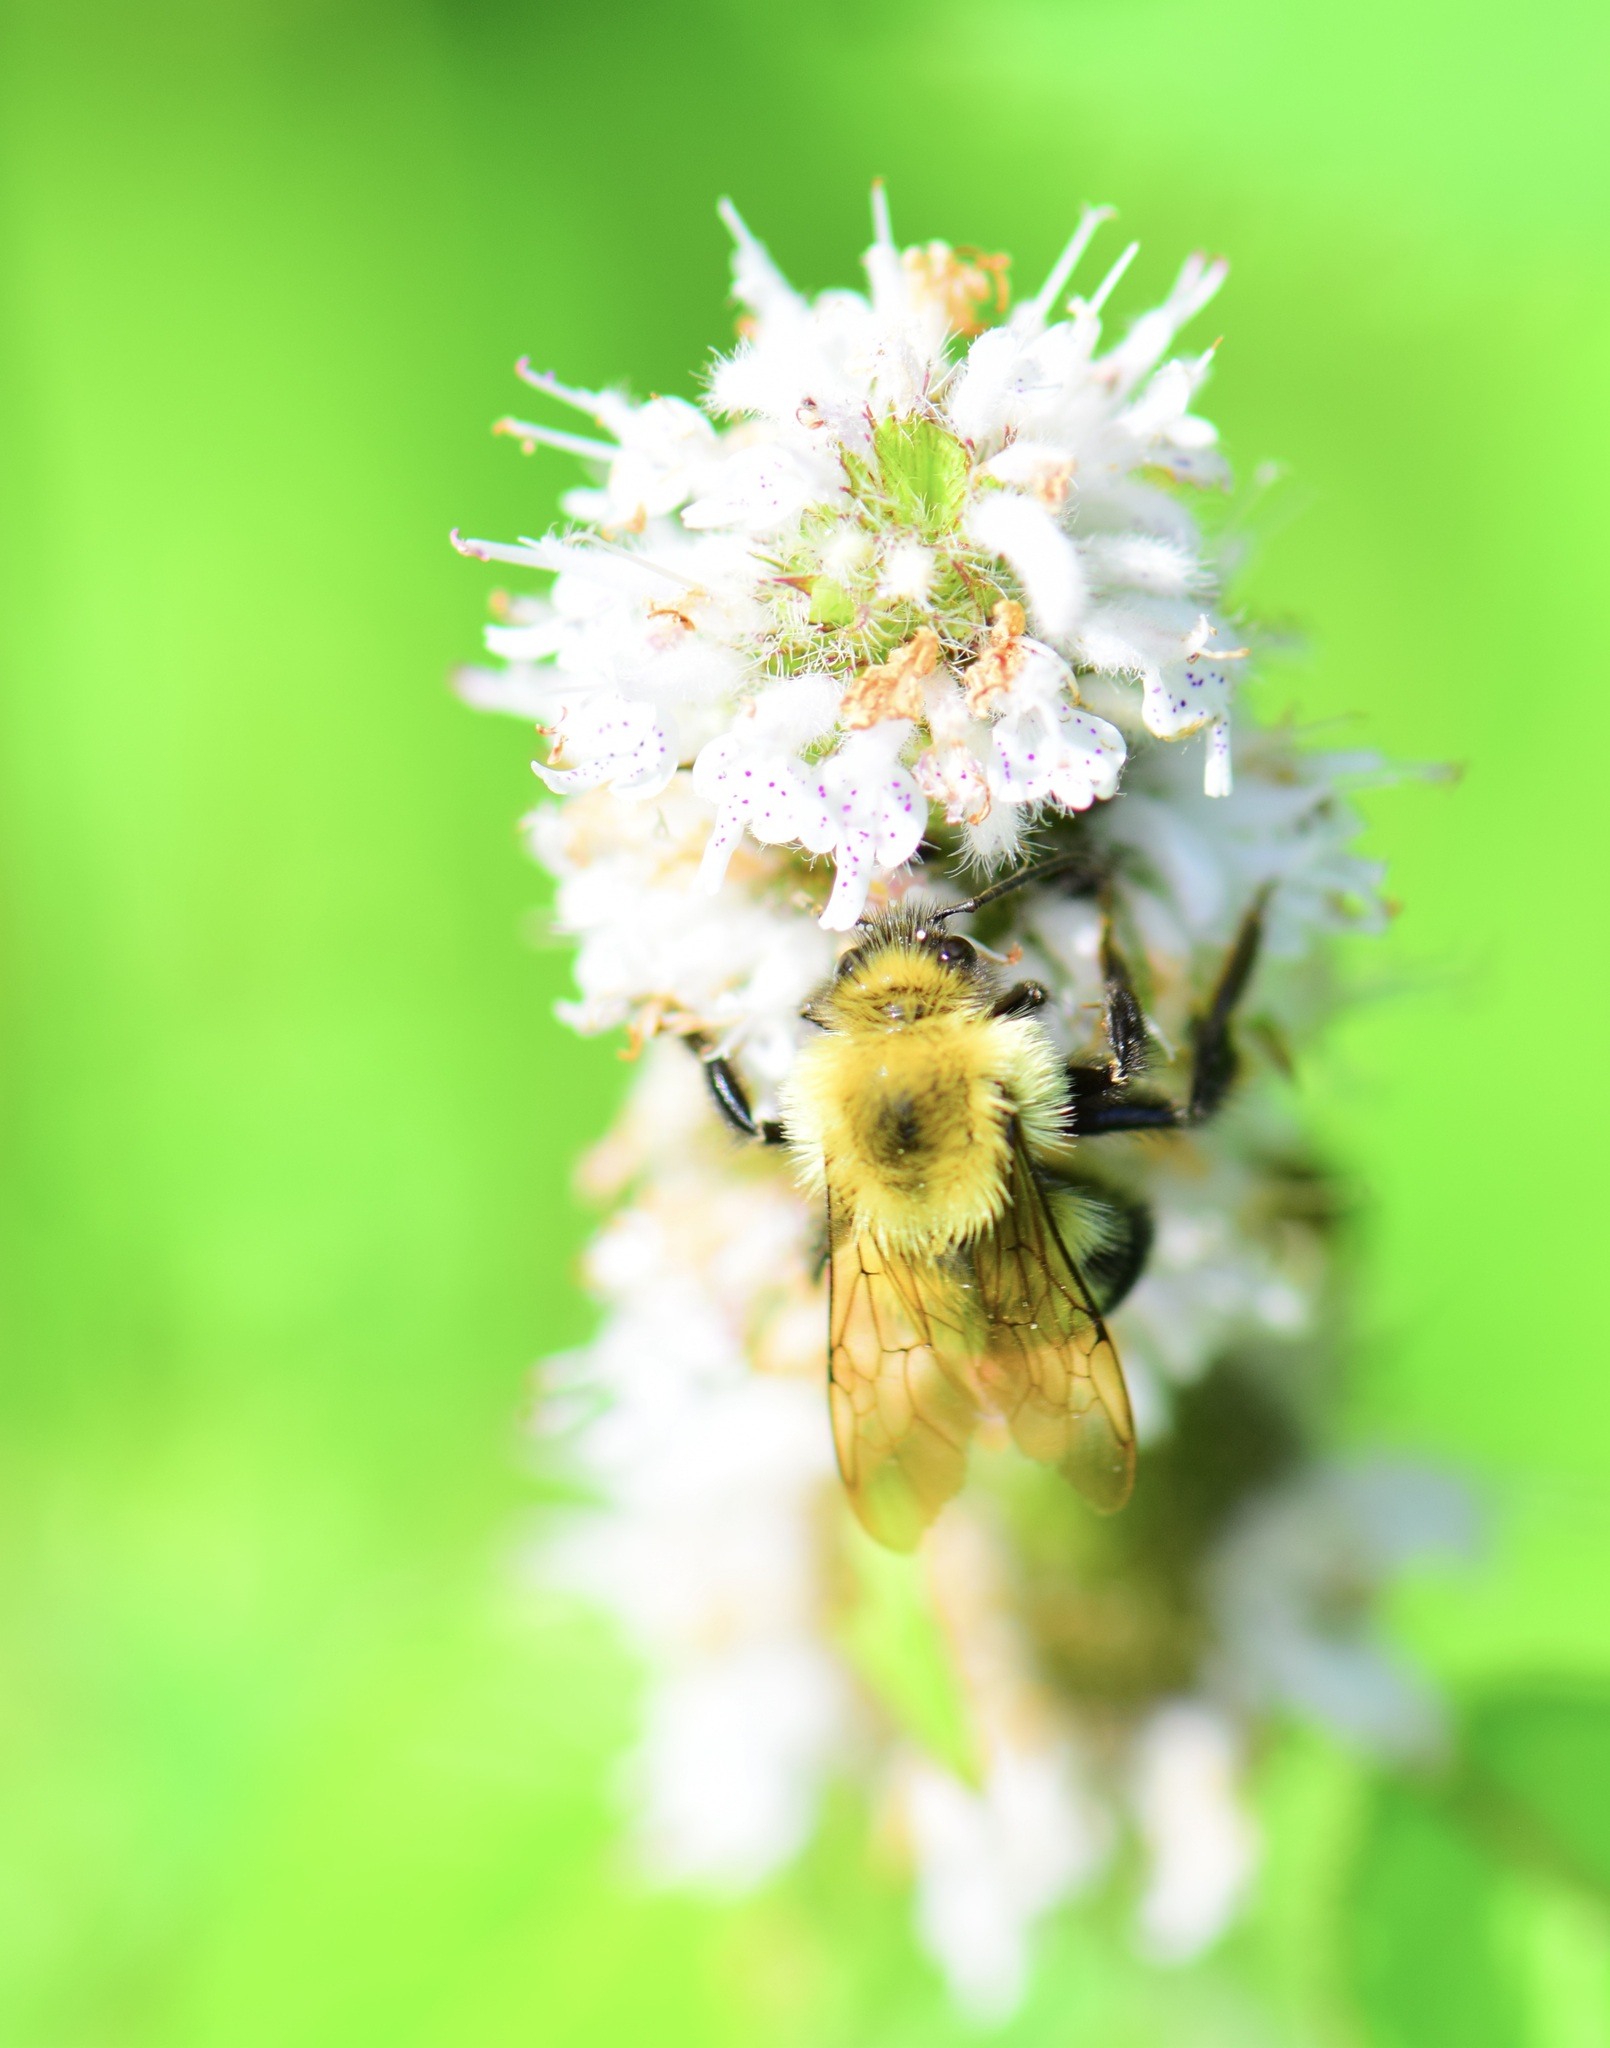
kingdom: Animalia
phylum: Arthropoda
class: Insecta
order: Hymenoptera
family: Apidae
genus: Bombus
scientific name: Bombus bimaculatus
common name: Two-spotted bumble bee
